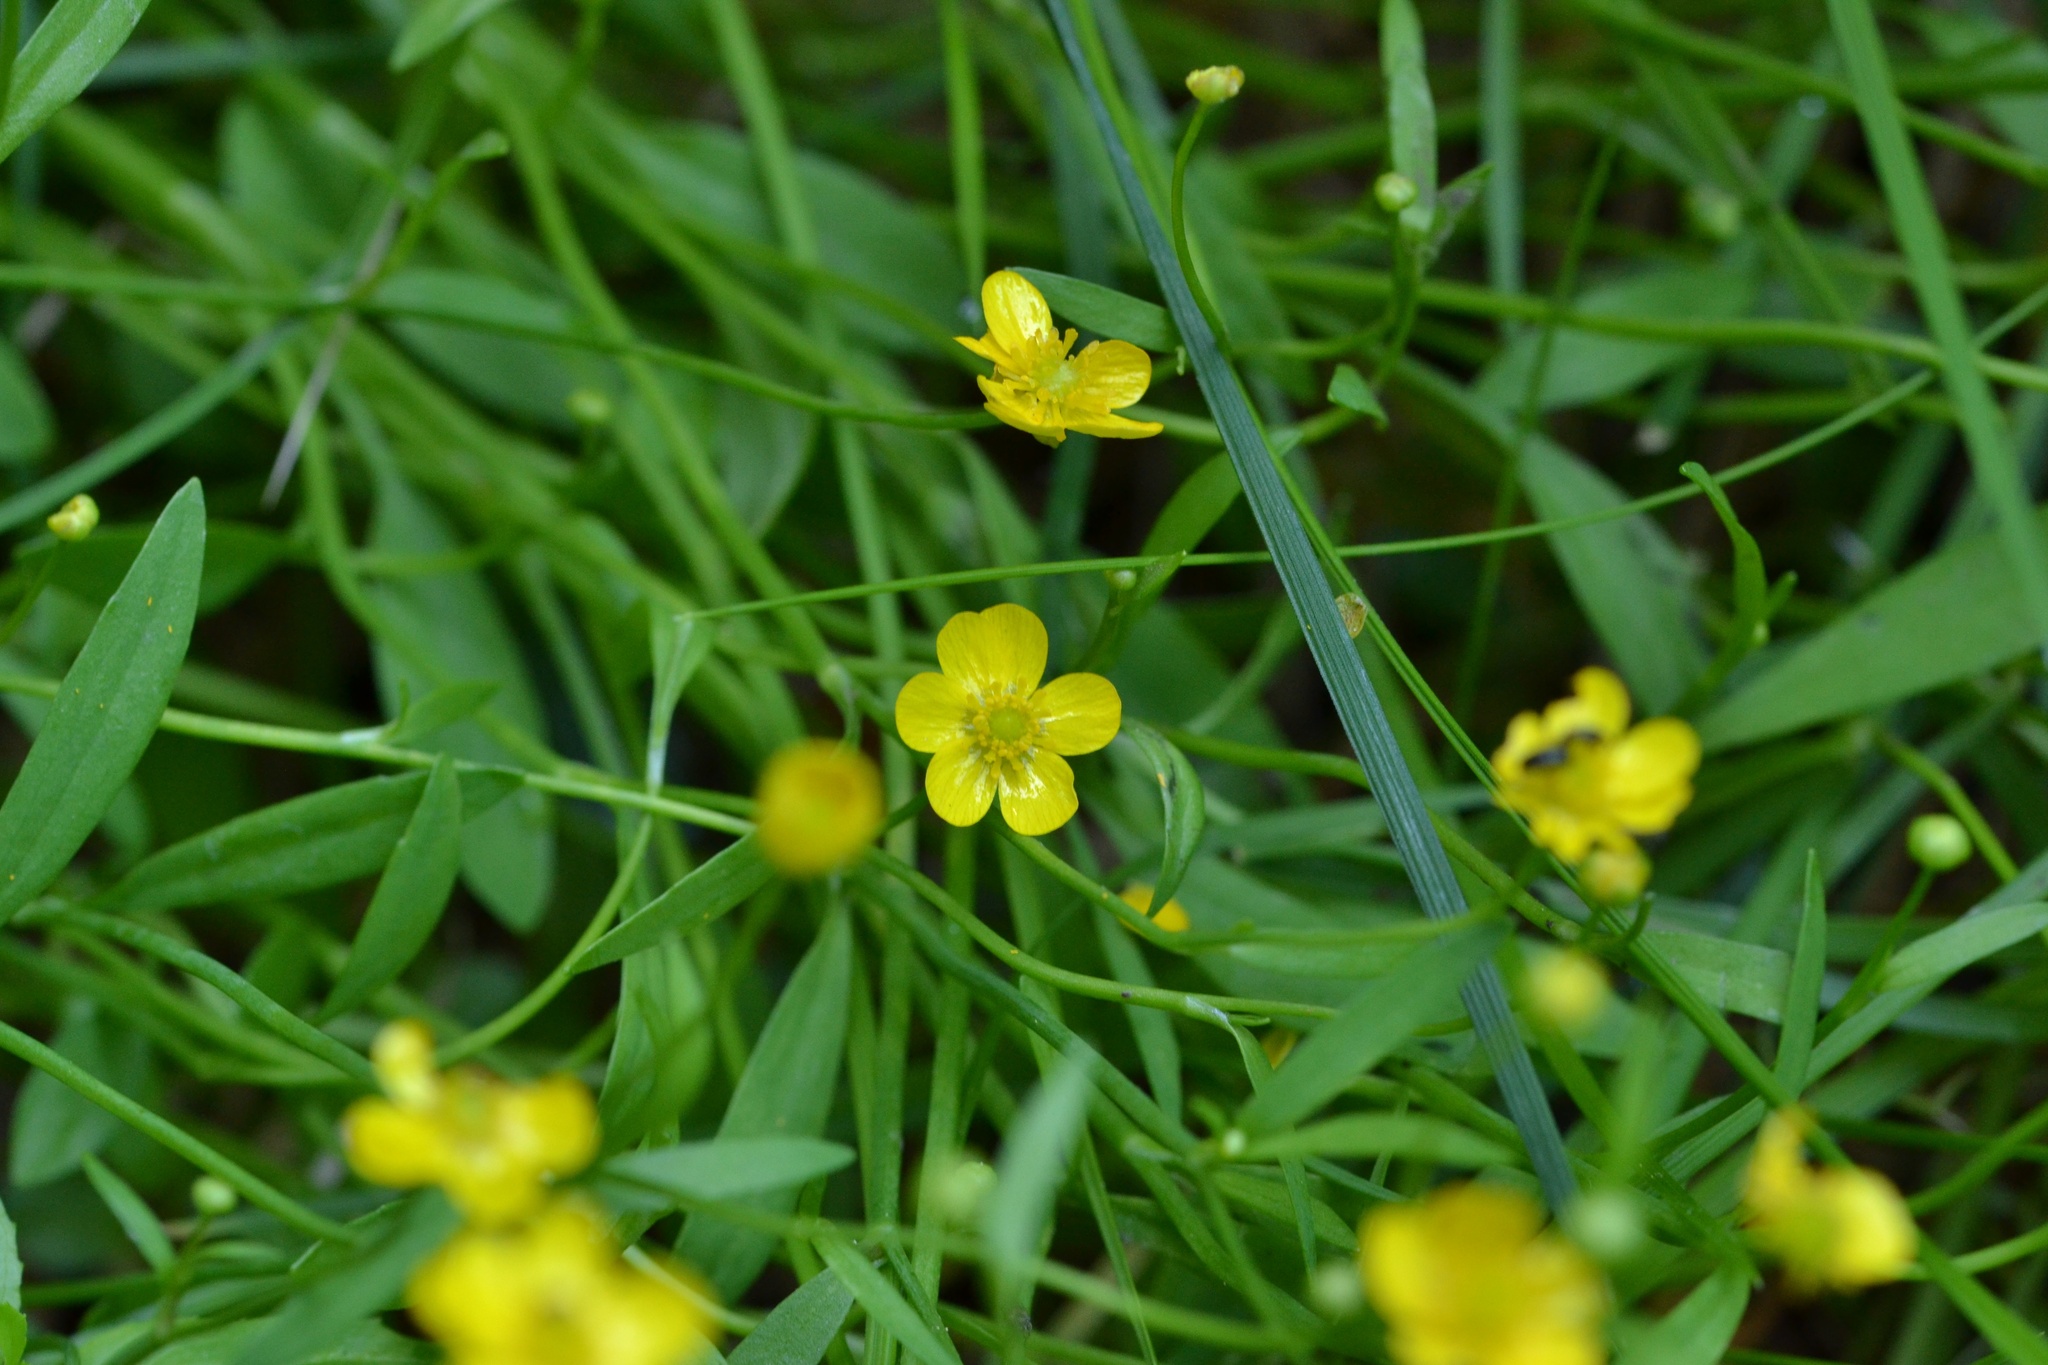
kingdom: Plantae
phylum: Tracheophyta
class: Magnoliopsida
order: Ranunculales
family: Ranunculaceae
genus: Ranunculus
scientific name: Ranunculus flammula
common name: Lesser spearwort
